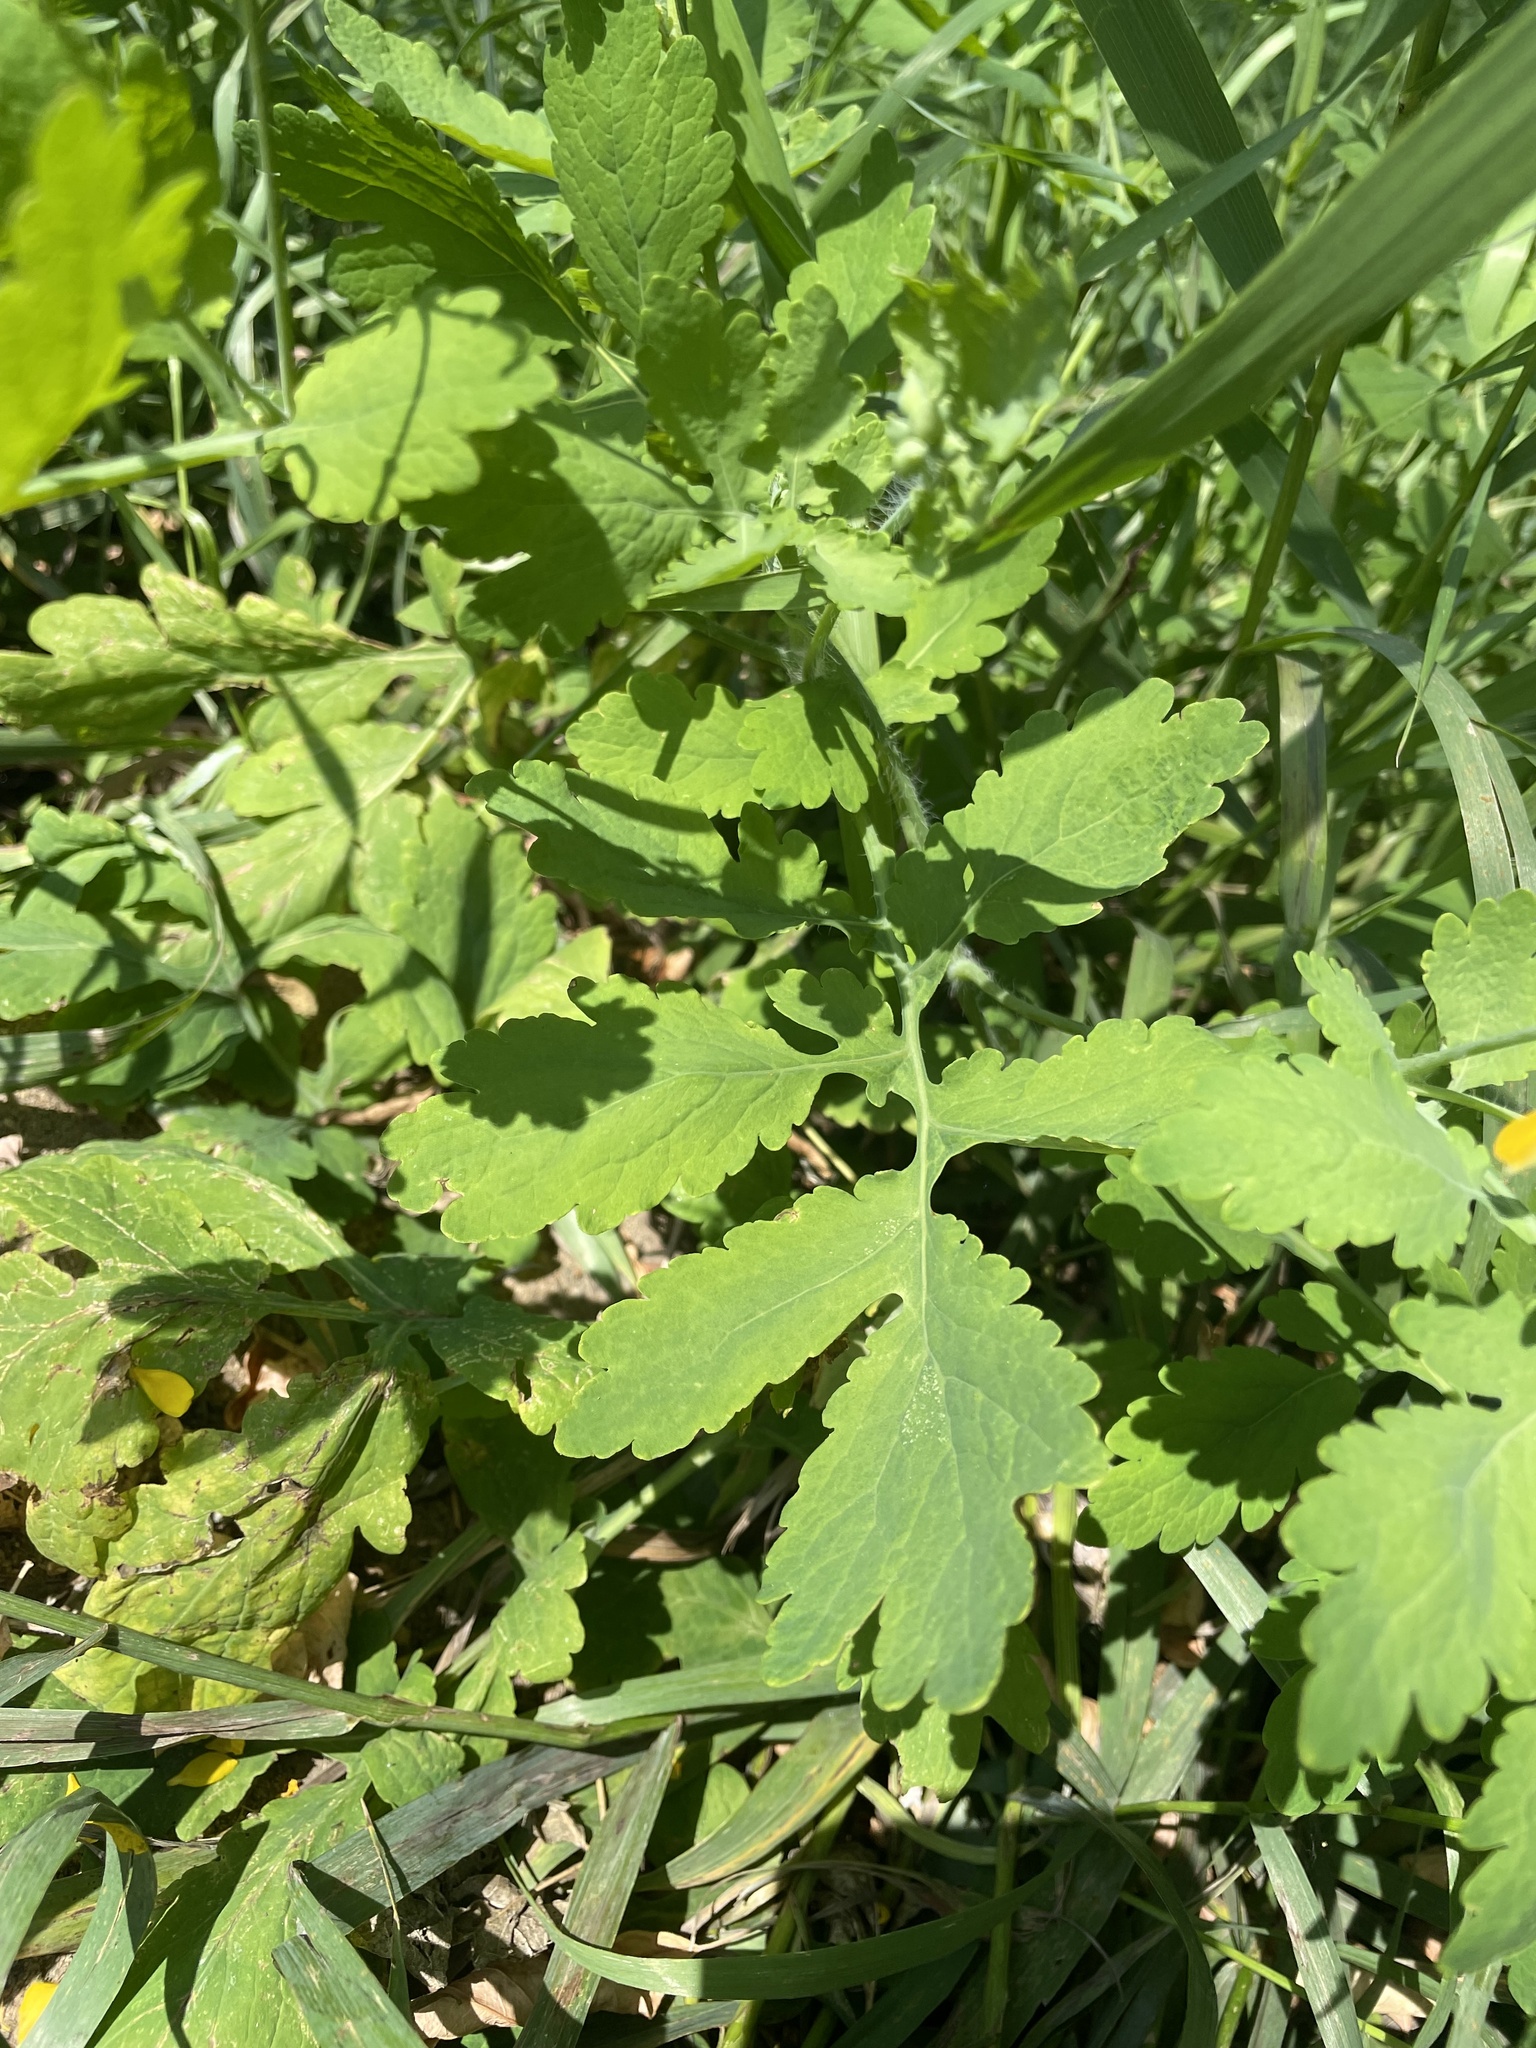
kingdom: Plantae
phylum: Tracheophyta
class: Magnoliopsida
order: Ranunculales
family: Papaveraceae
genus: Chelidonium
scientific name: Chelidonium majus
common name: Greater celandine
